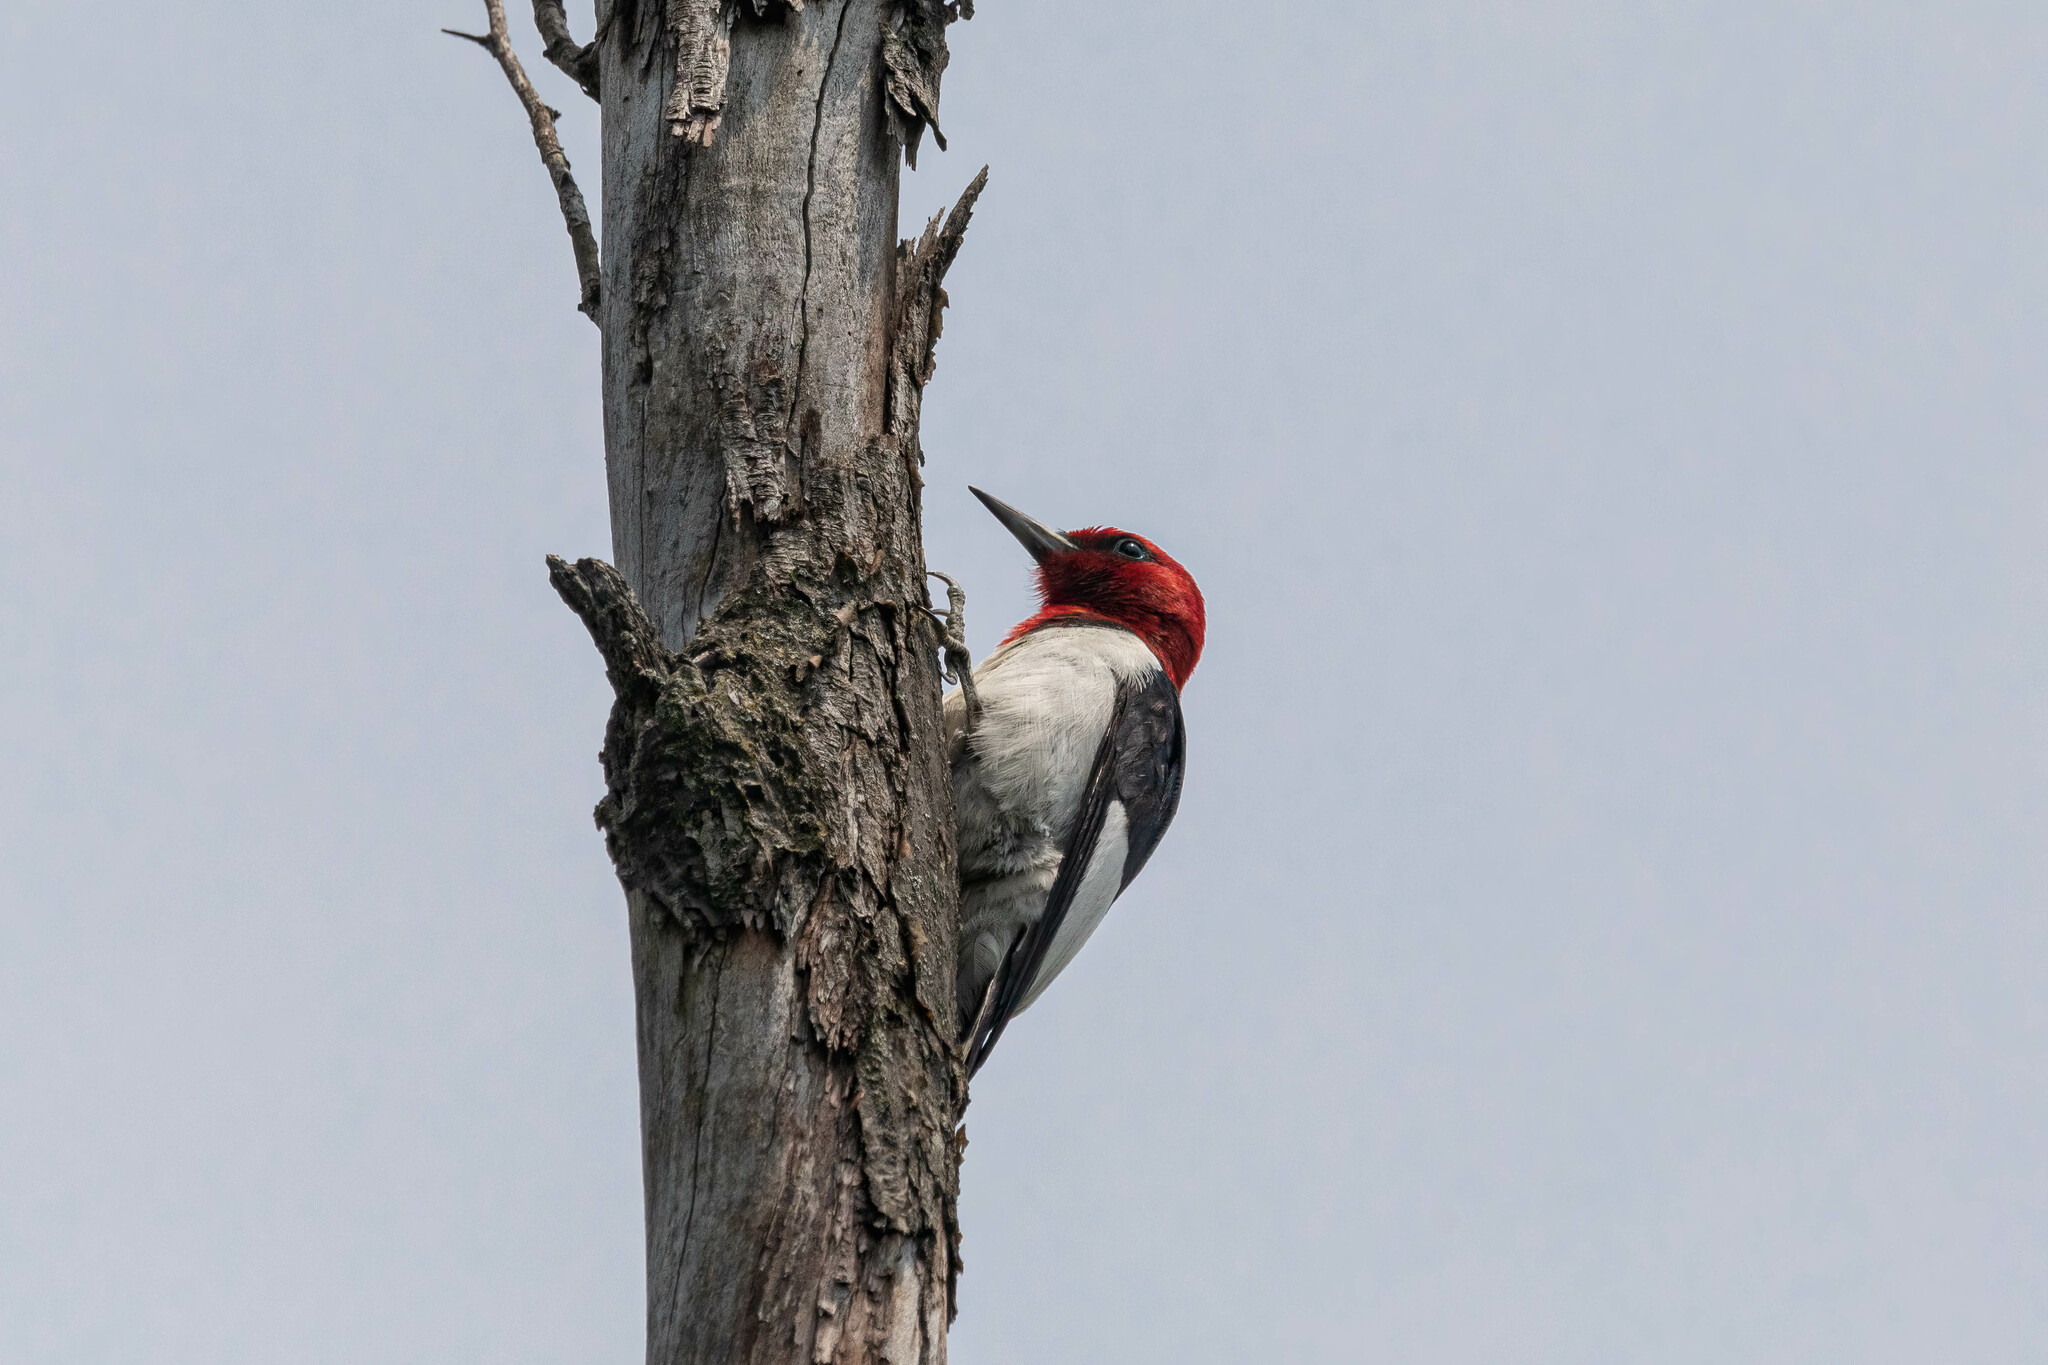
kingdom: Animalia
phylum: Chordata
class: Aves
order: Piciformes
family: Picidae
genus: Melanerpes
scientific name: Melanerpes erythrocephalus
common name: Red-headed woodpecker
